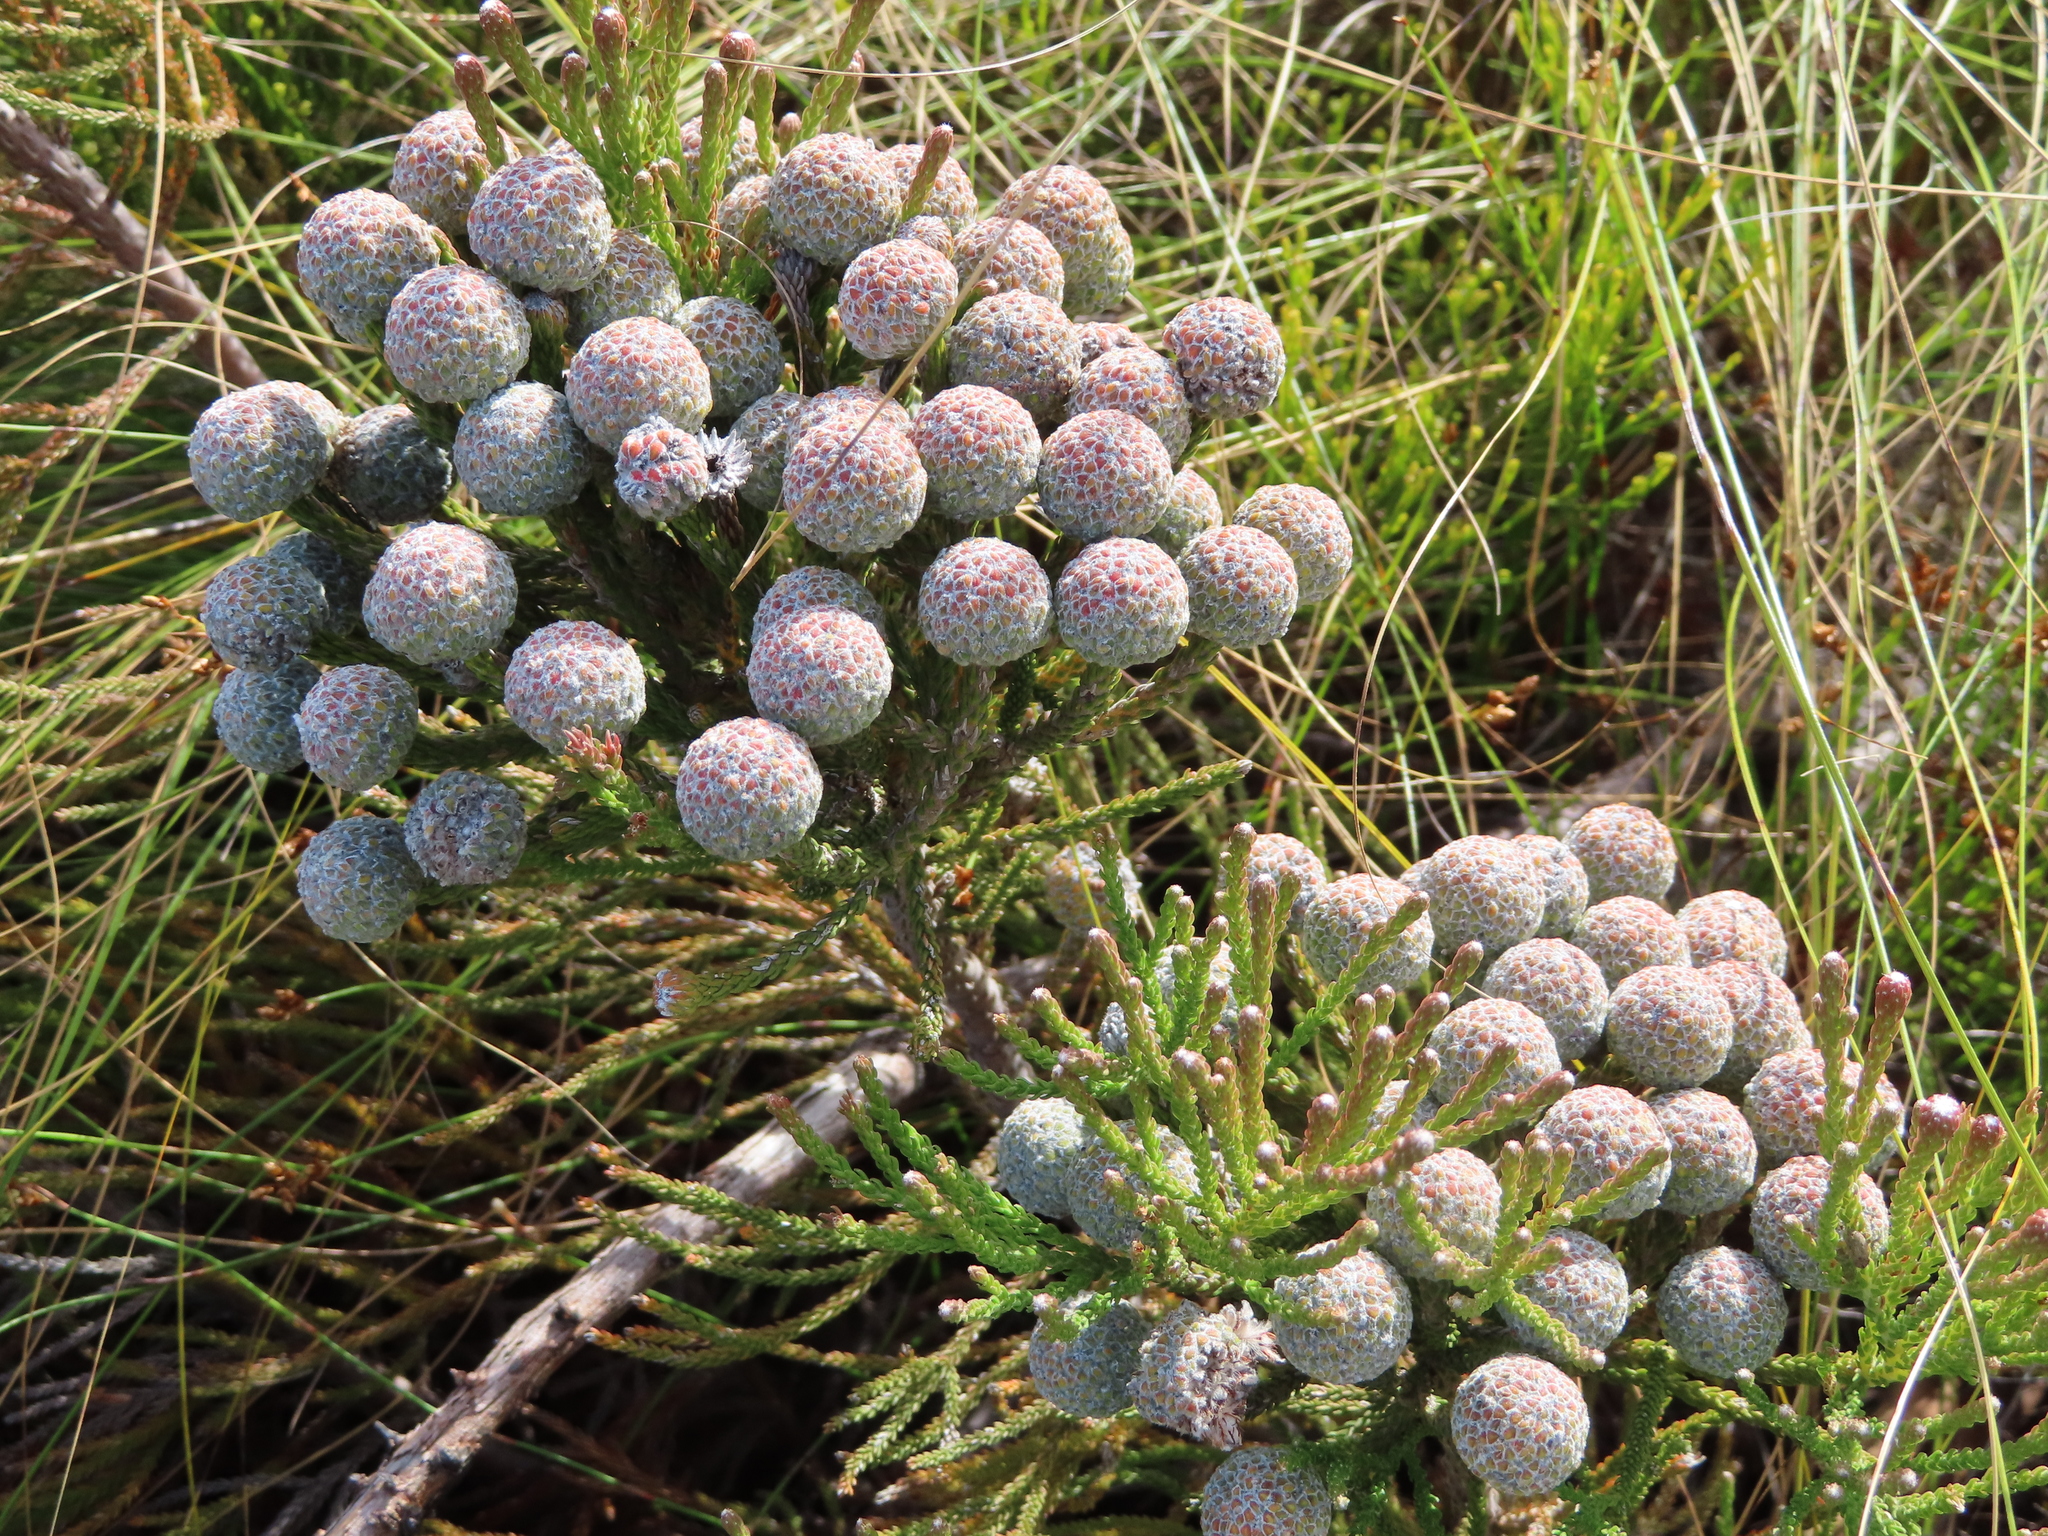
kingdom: Plantae
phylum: Tracheophyta
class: Magnoliopsida
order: Bruniales
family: Bruniaceae
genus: Brunia
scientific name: Brunia noduliflora
